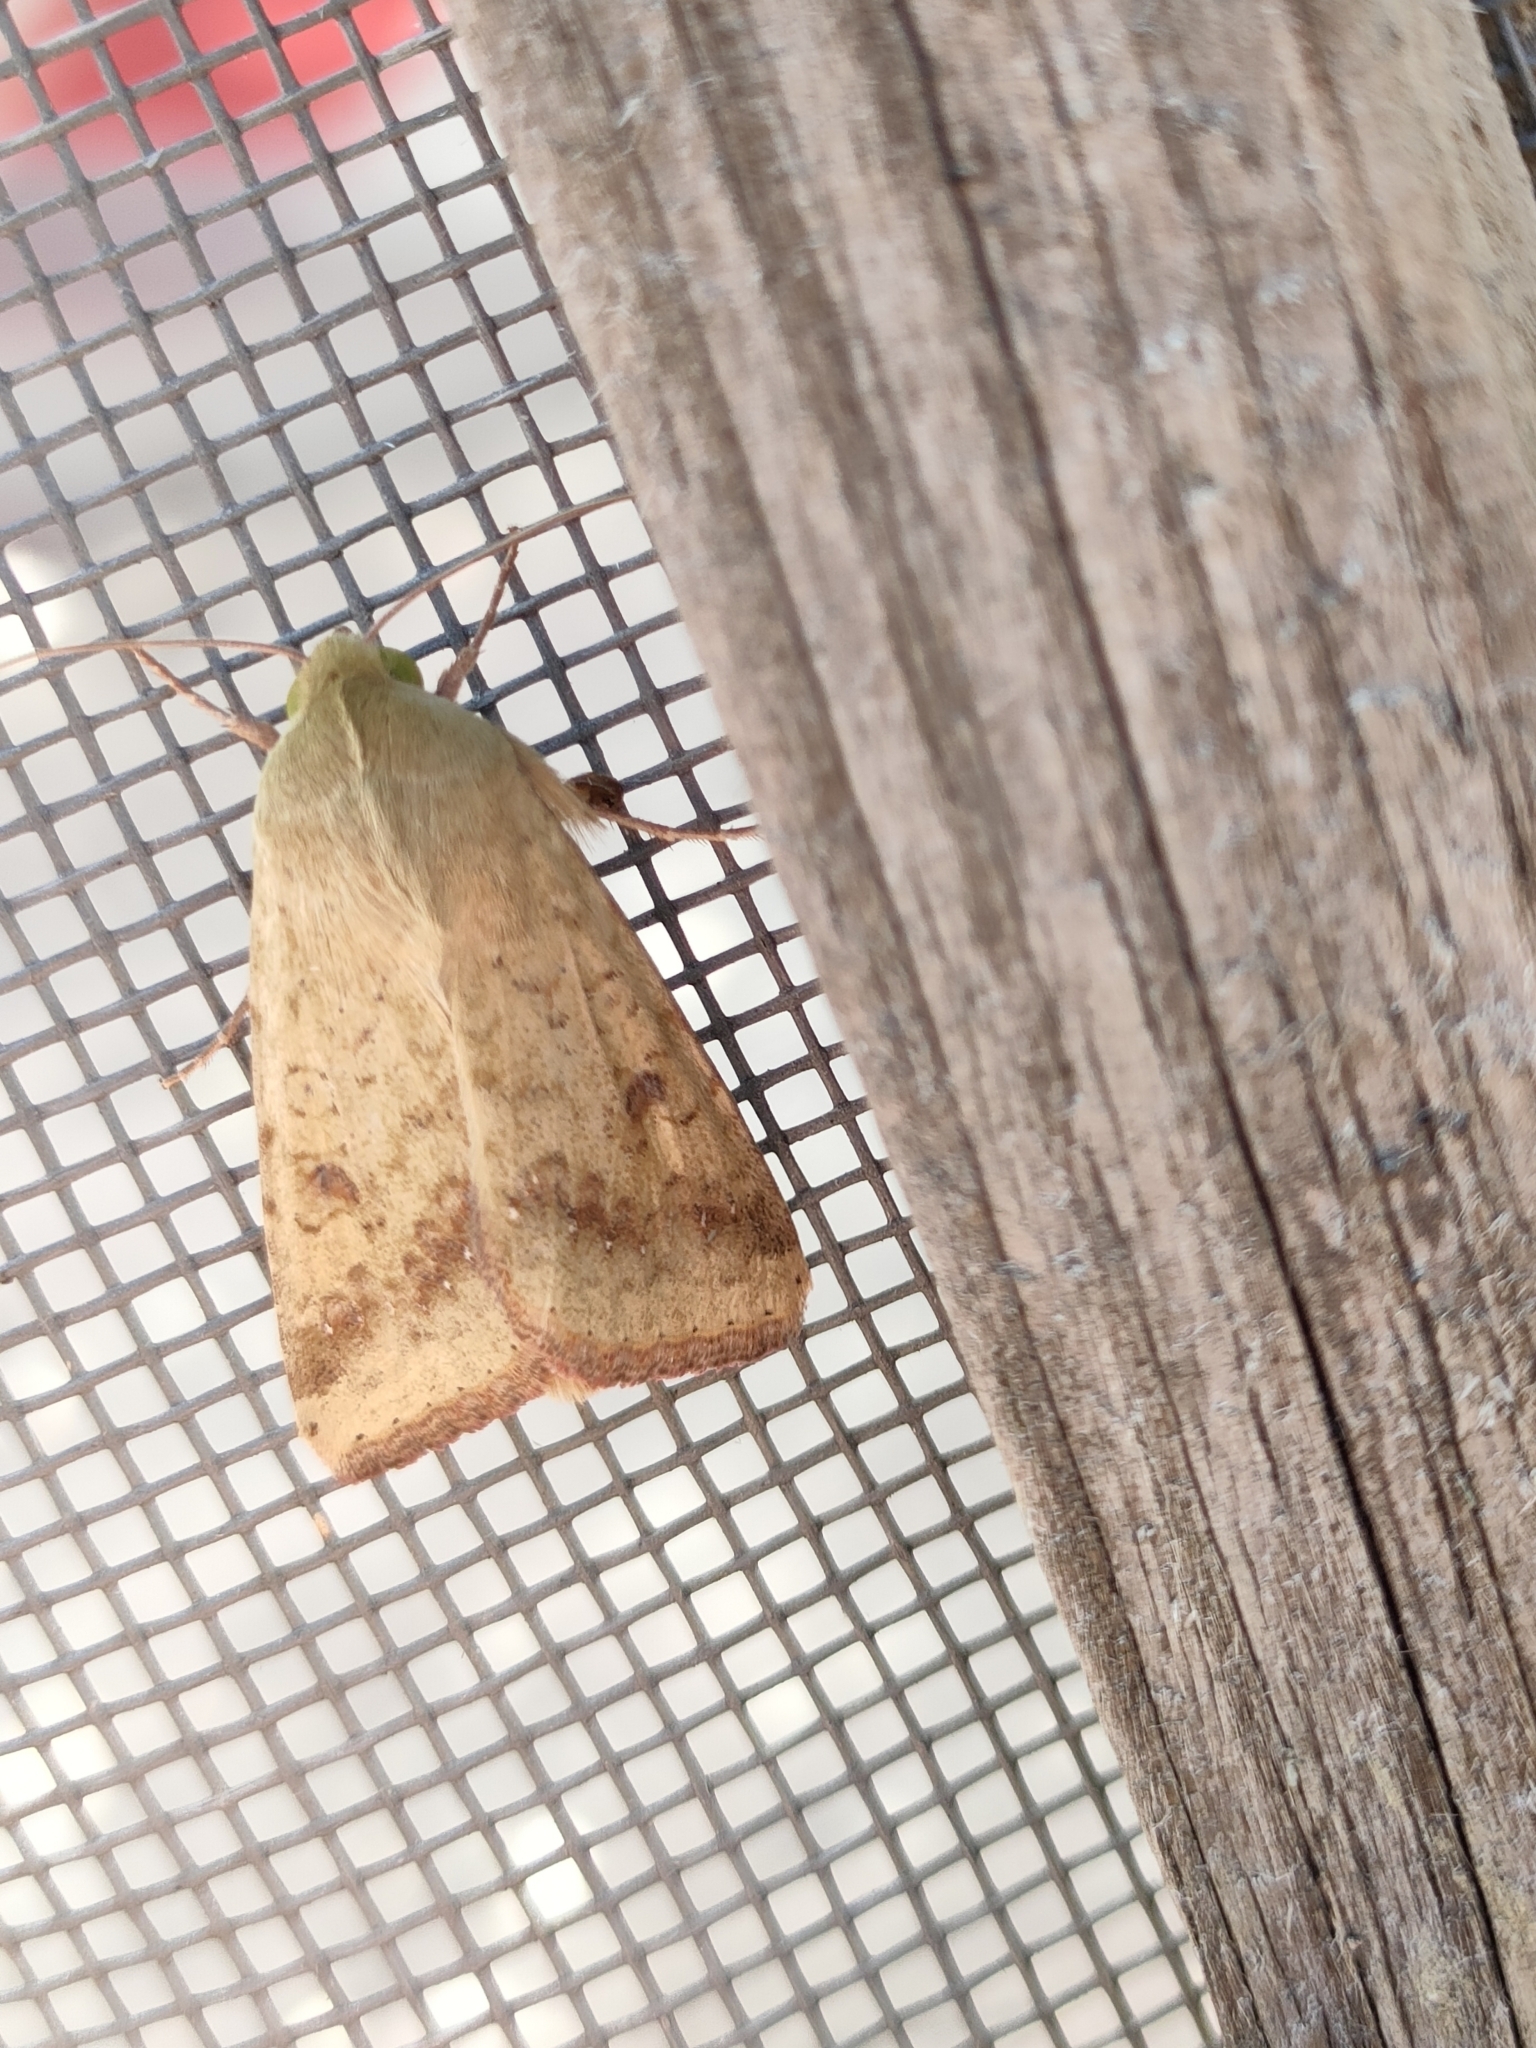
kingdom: Animalia
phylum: Arthropoda
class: Insecta
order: Lepidoptera
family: Noctuidae
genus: Helicoverpa
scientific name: Helicoverpa armigera
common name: Cotton bollworm
